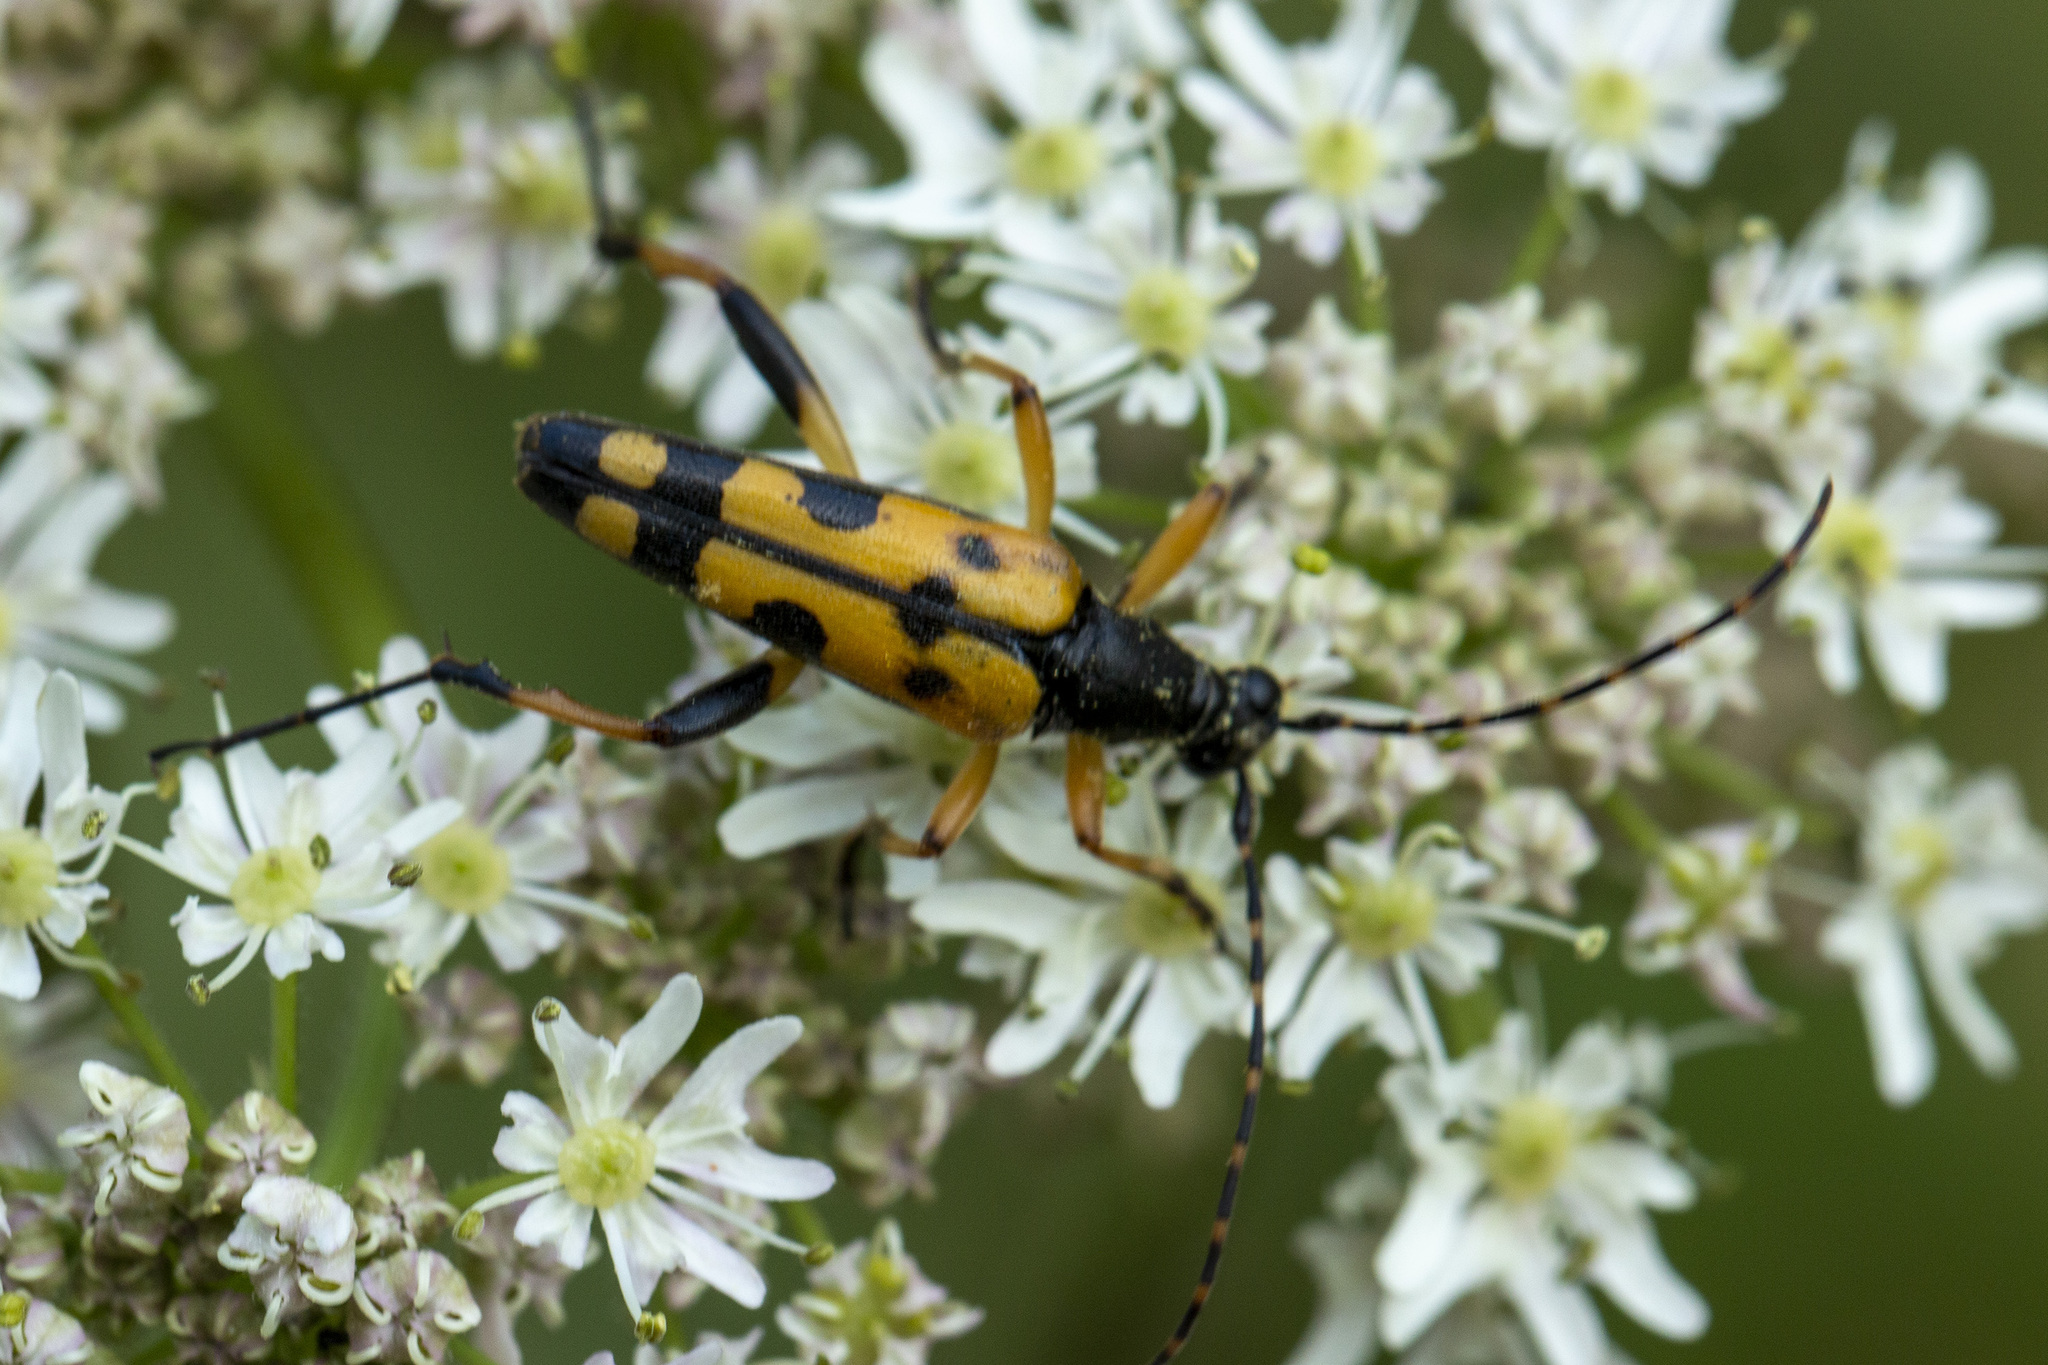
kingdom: Animalia
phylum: Arthropoda
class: Insecta
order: Coleoptera
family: Cerambycidae
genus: Rutpela
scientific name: Rutpela maculata
